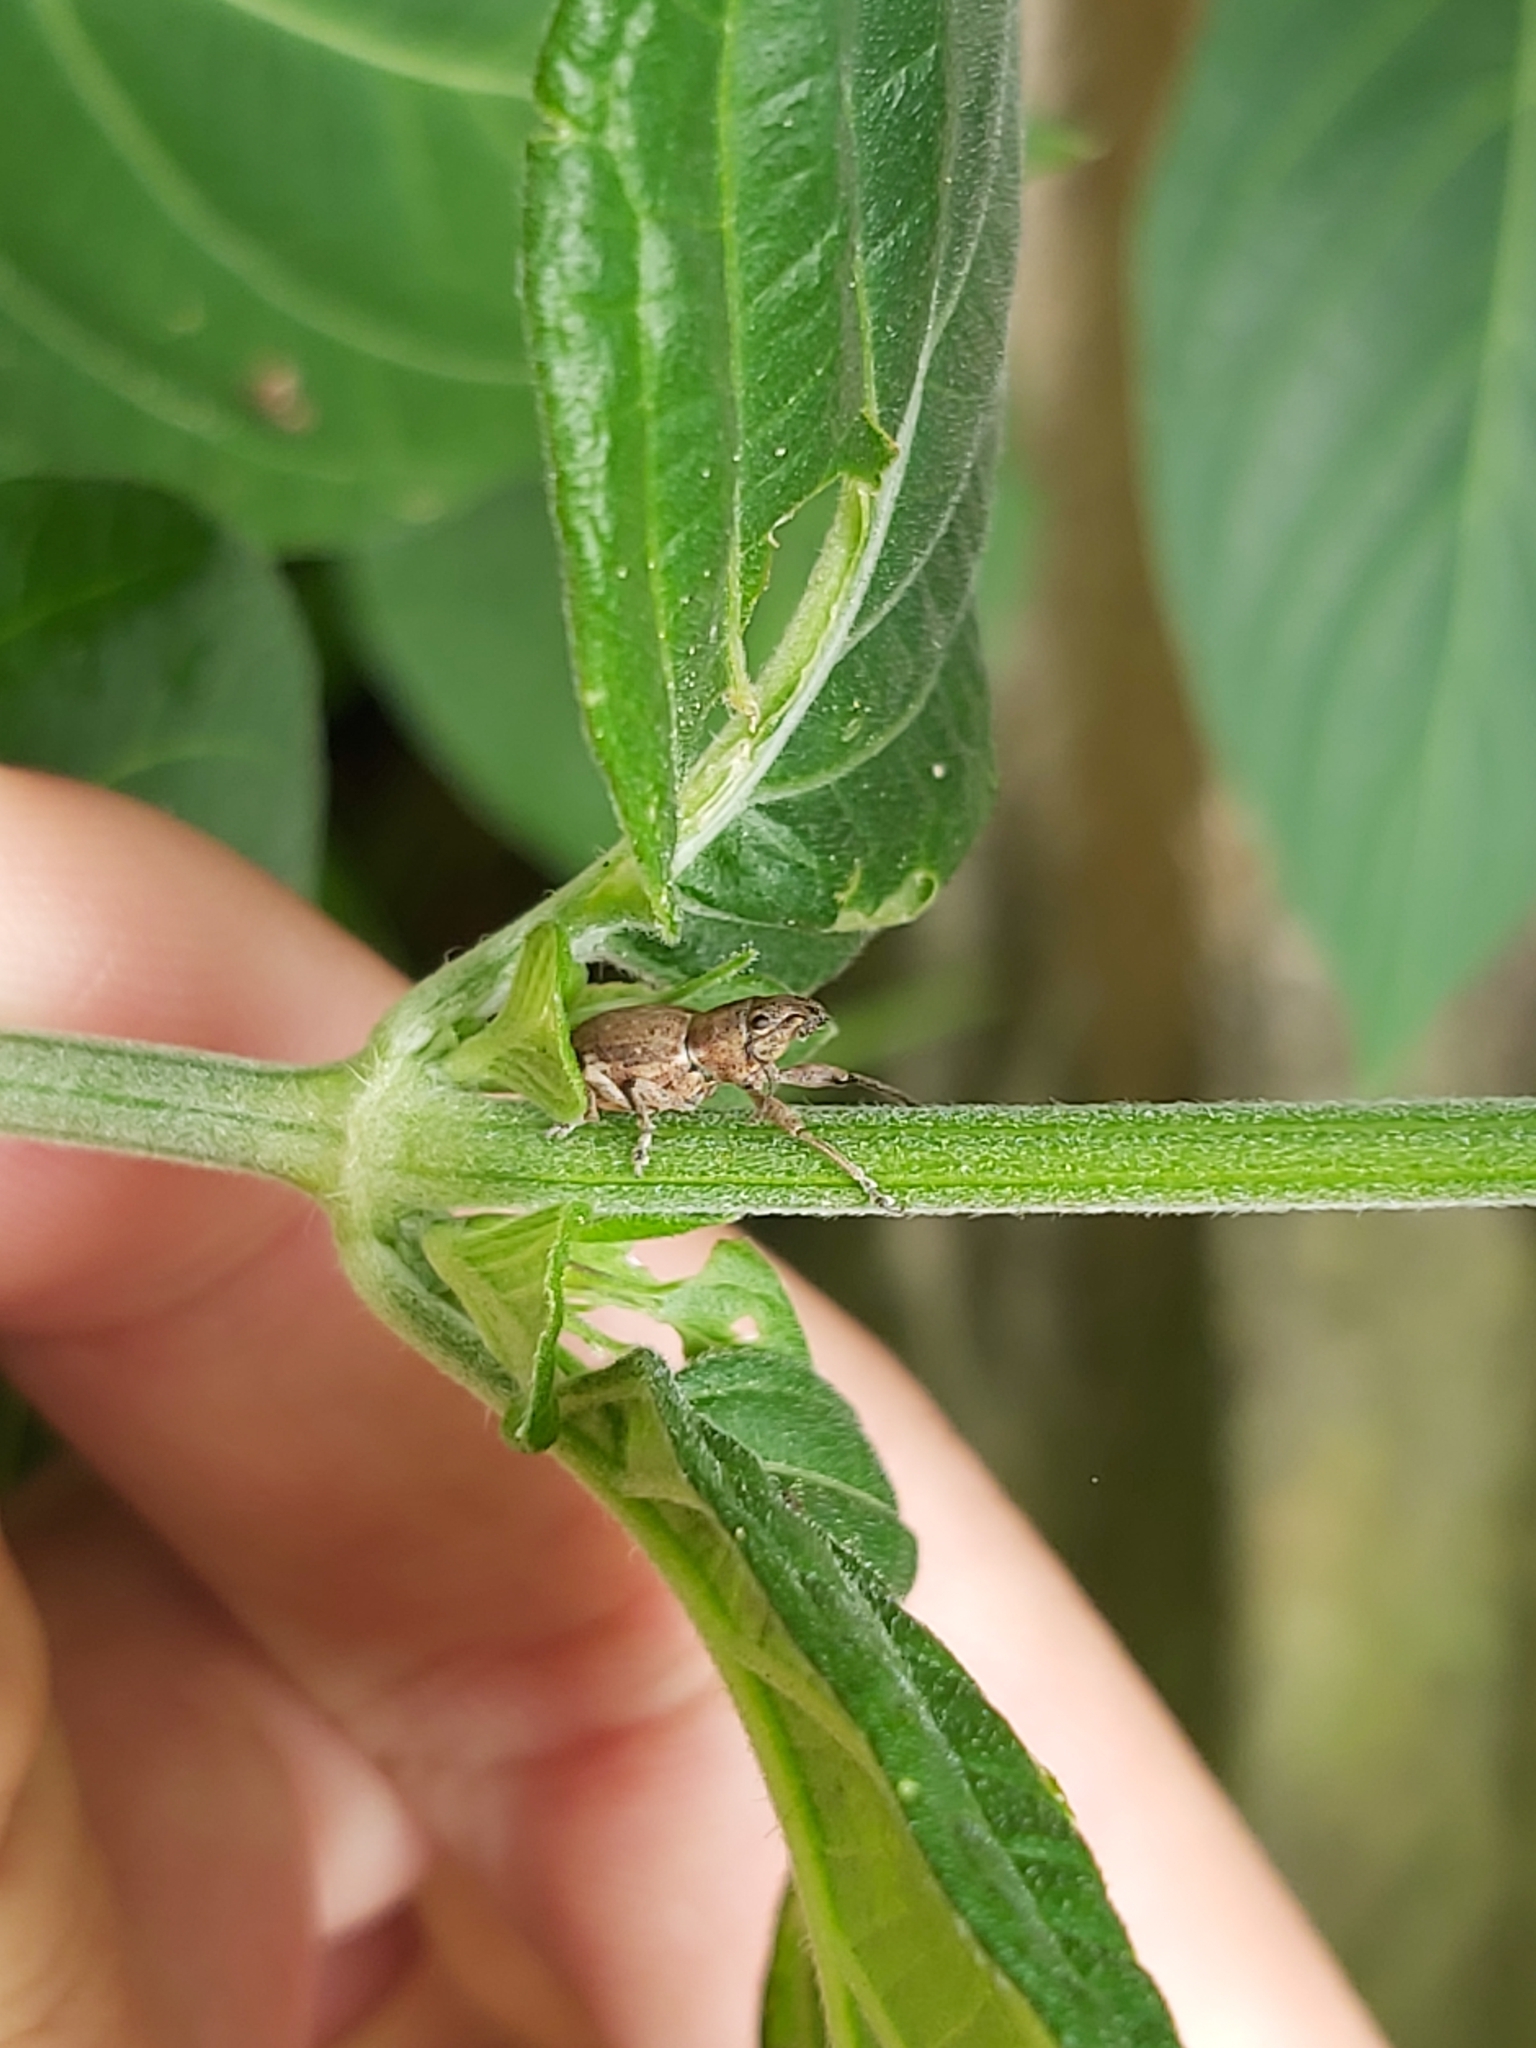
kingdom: Animalia
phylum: Arthropoda
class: Insecta
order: Coleoptera
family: Curculionidae
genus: Naupactus
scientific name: Naupactus cervinus
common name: Fuller rose beetle
